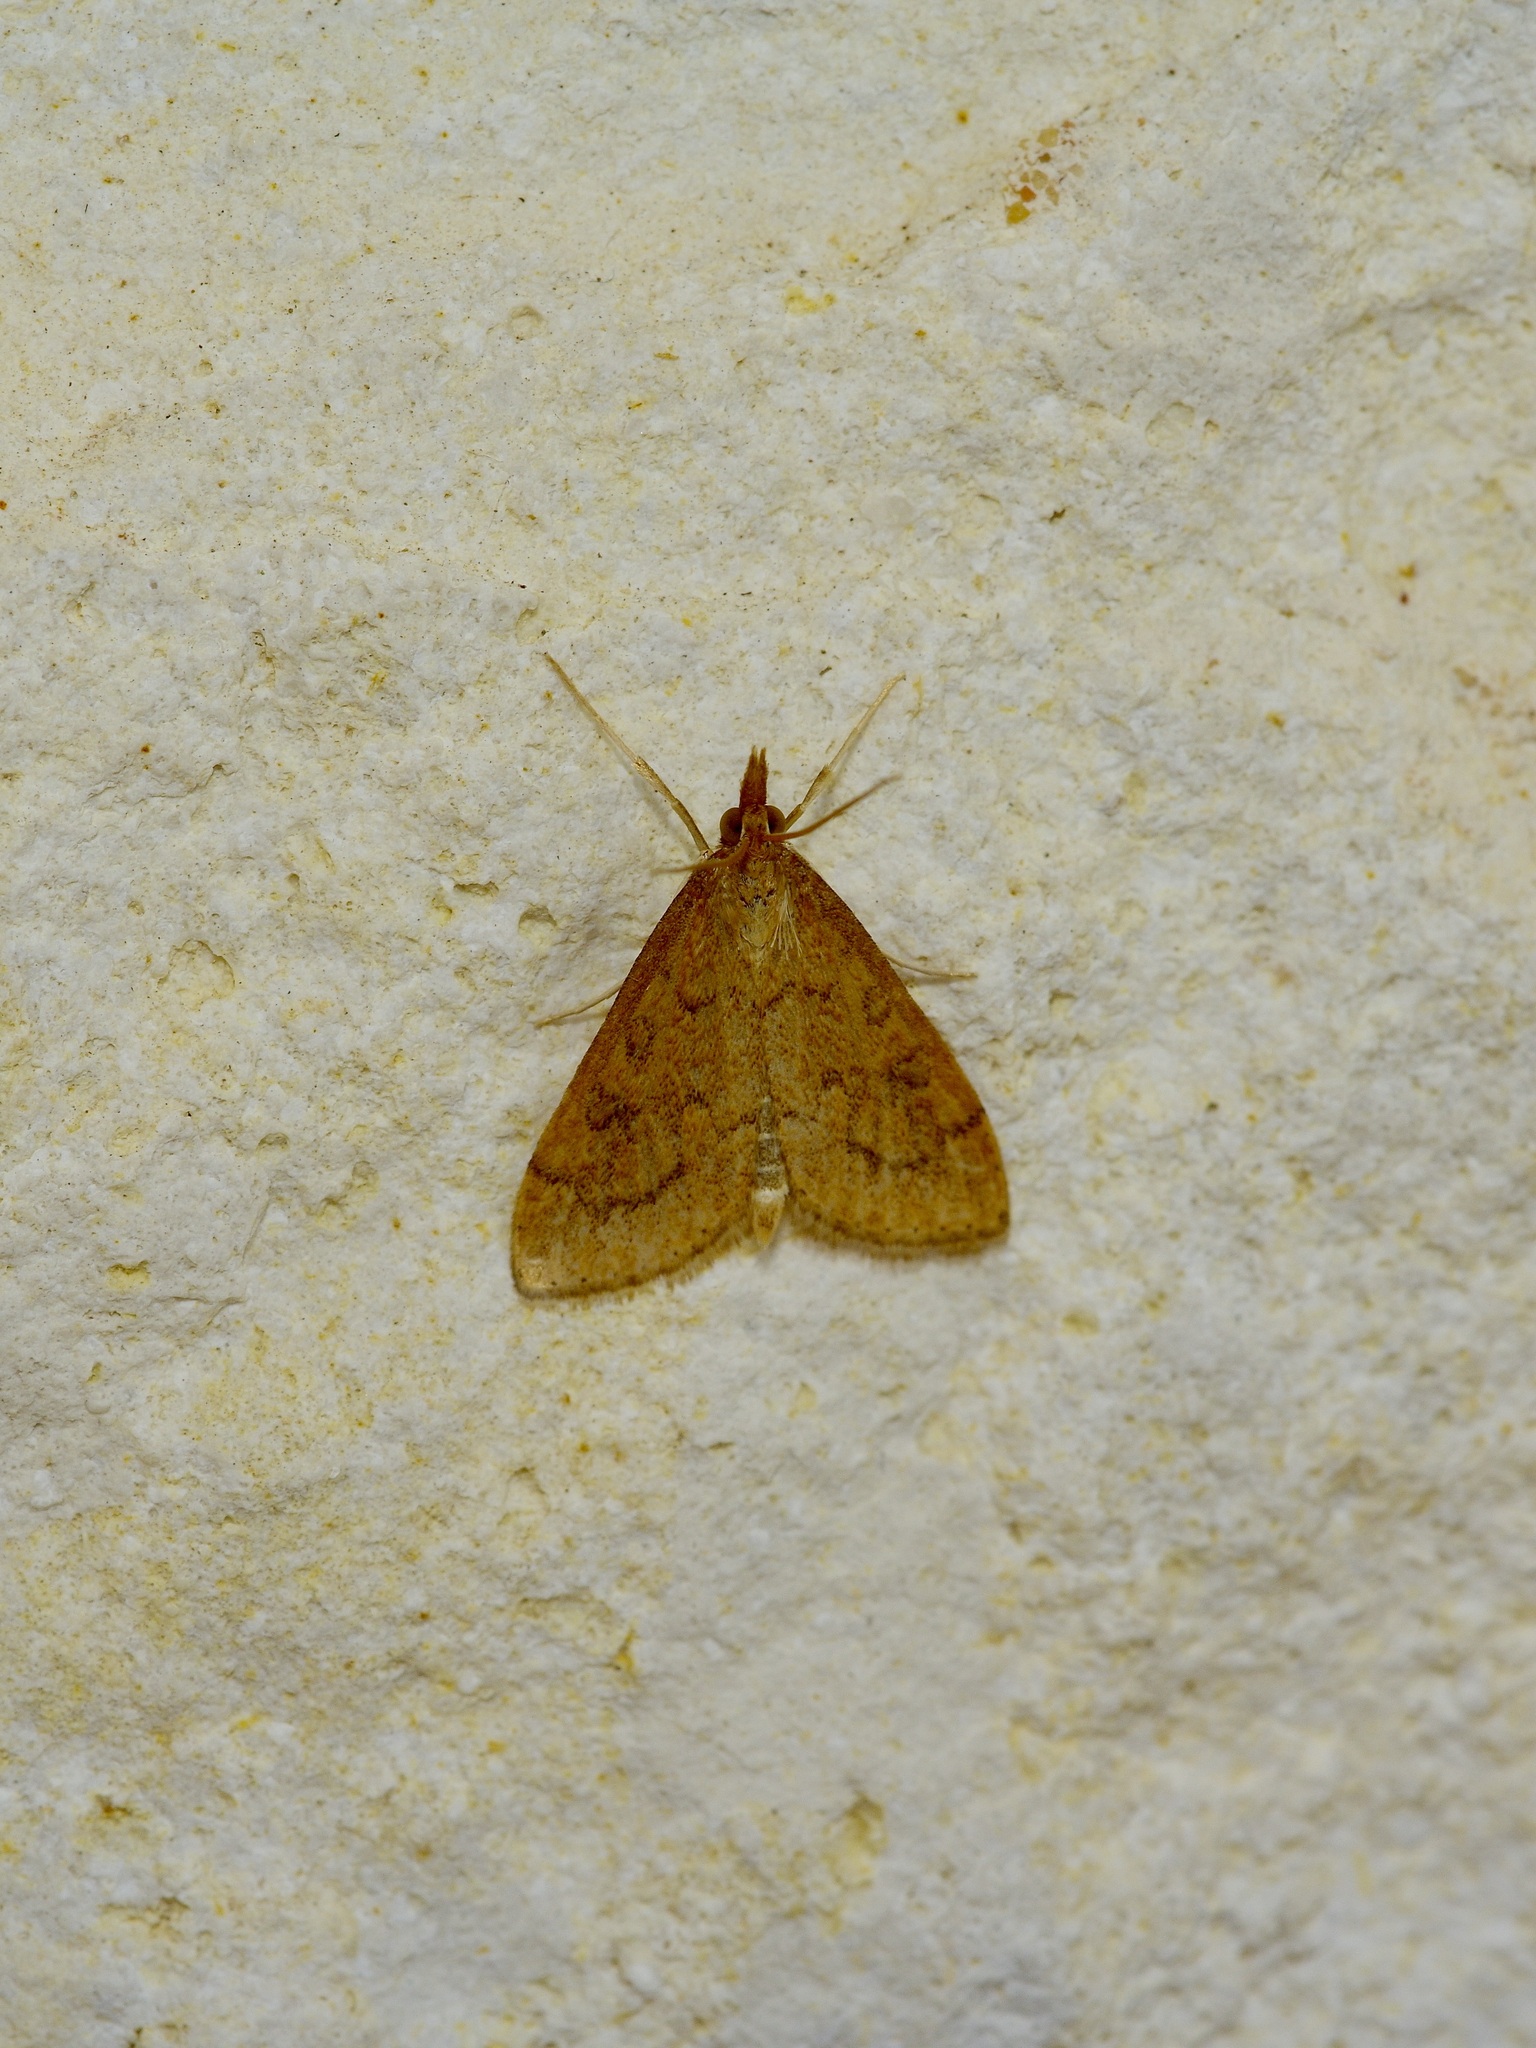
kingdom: Animalia
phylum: Arthropoda
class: Insecta
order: Lepidoptera
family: Crambidae
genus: Udea
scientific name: Udea rubigalis
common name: Celery leaftier moth
